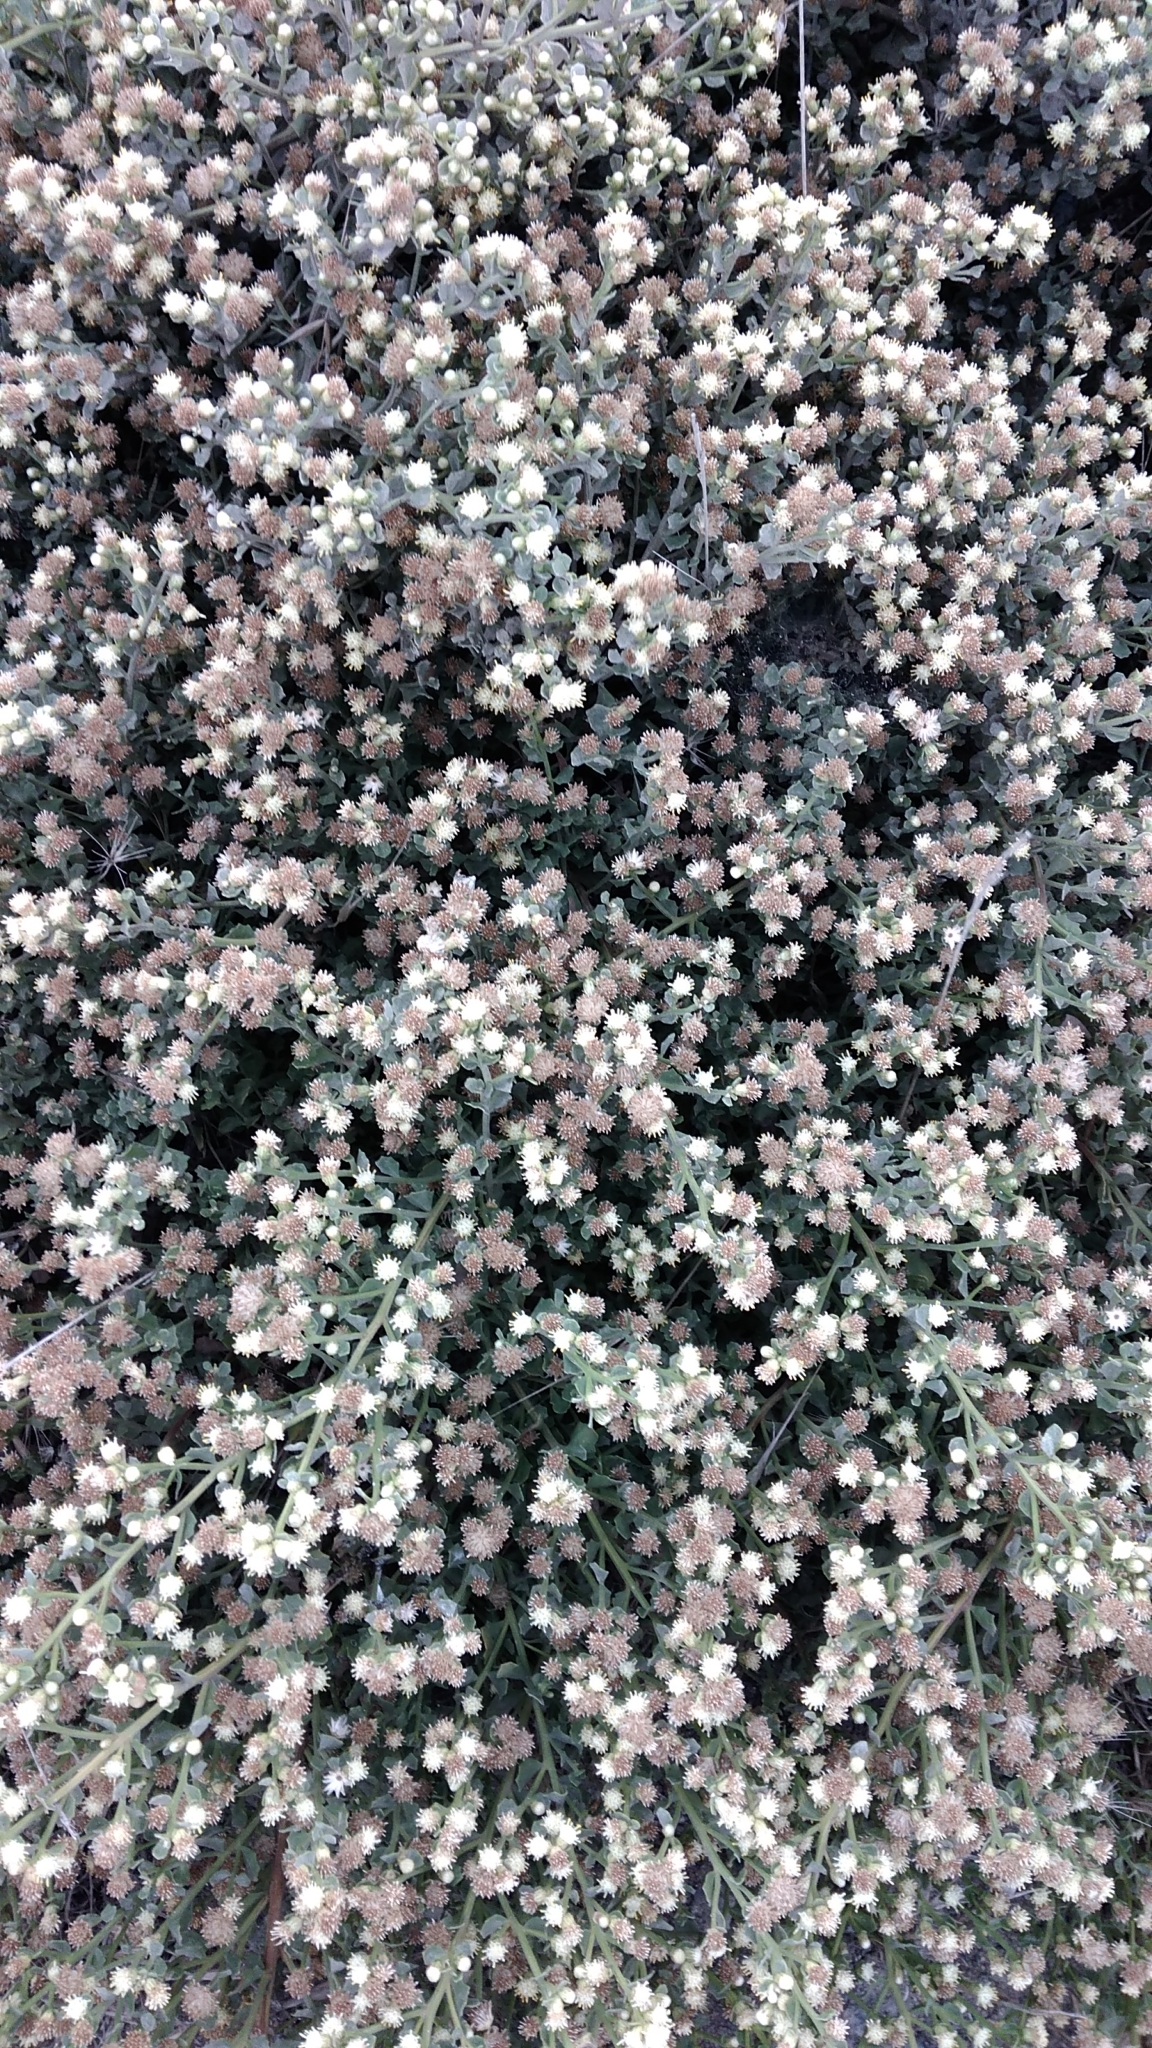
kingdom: Plantae
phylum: Tracheophyta
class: Magnoliopsida
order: Asterales
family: Asteraceae
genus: Baccharis
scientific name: Baccharis pilularis
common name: Coyotebrush
